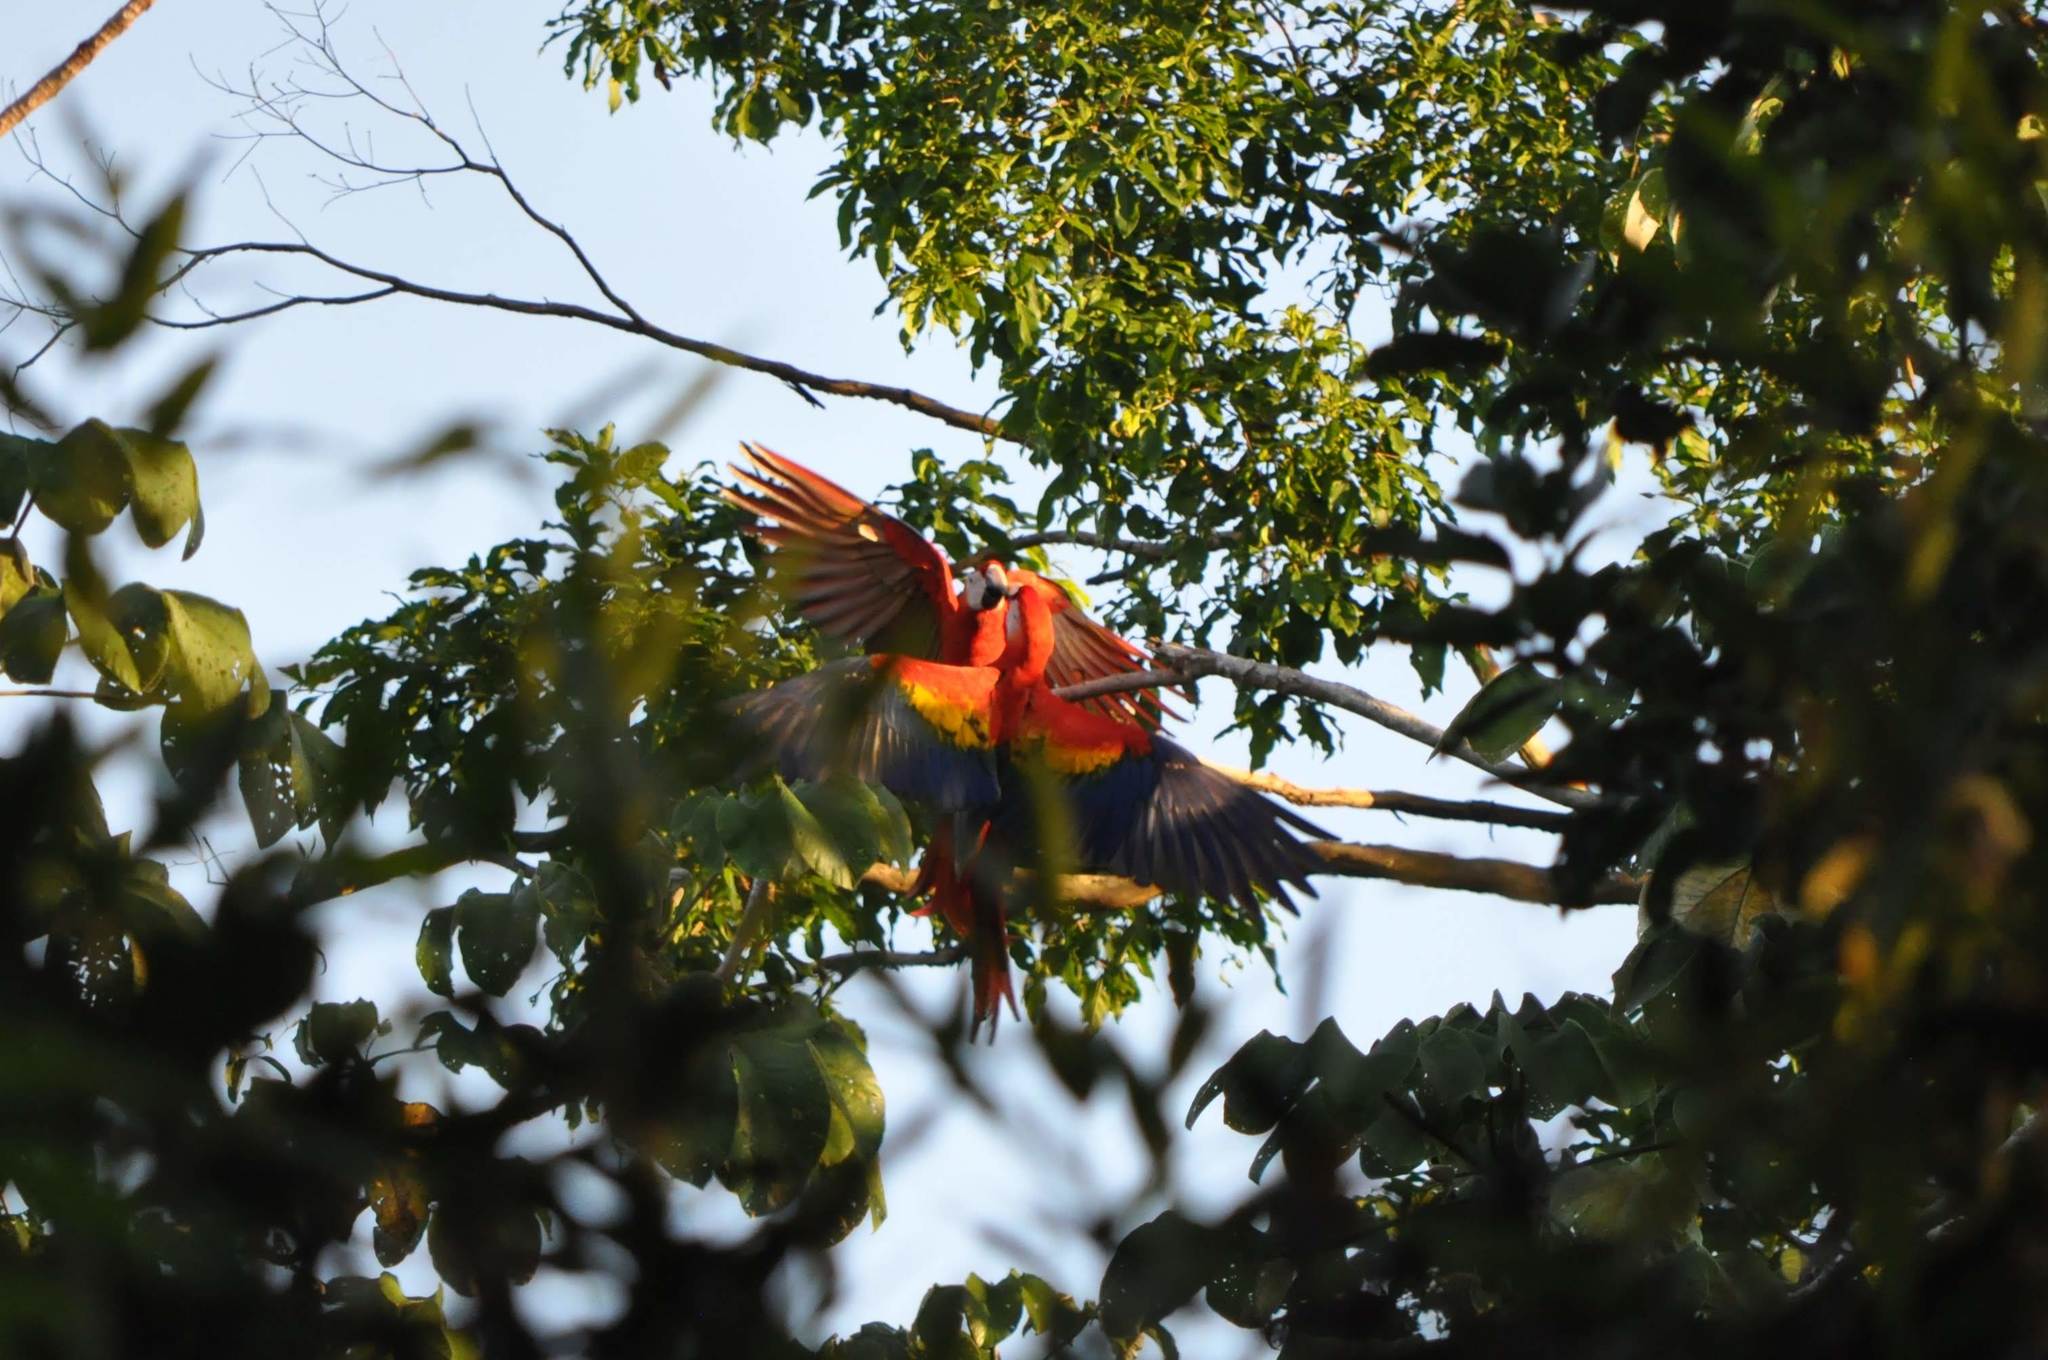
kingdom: Animalia
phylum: Chordata
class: Aves
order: Psittaciformes
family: Psittacidae
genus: Ara
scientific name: Ara macao
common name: Scarlet macaw
